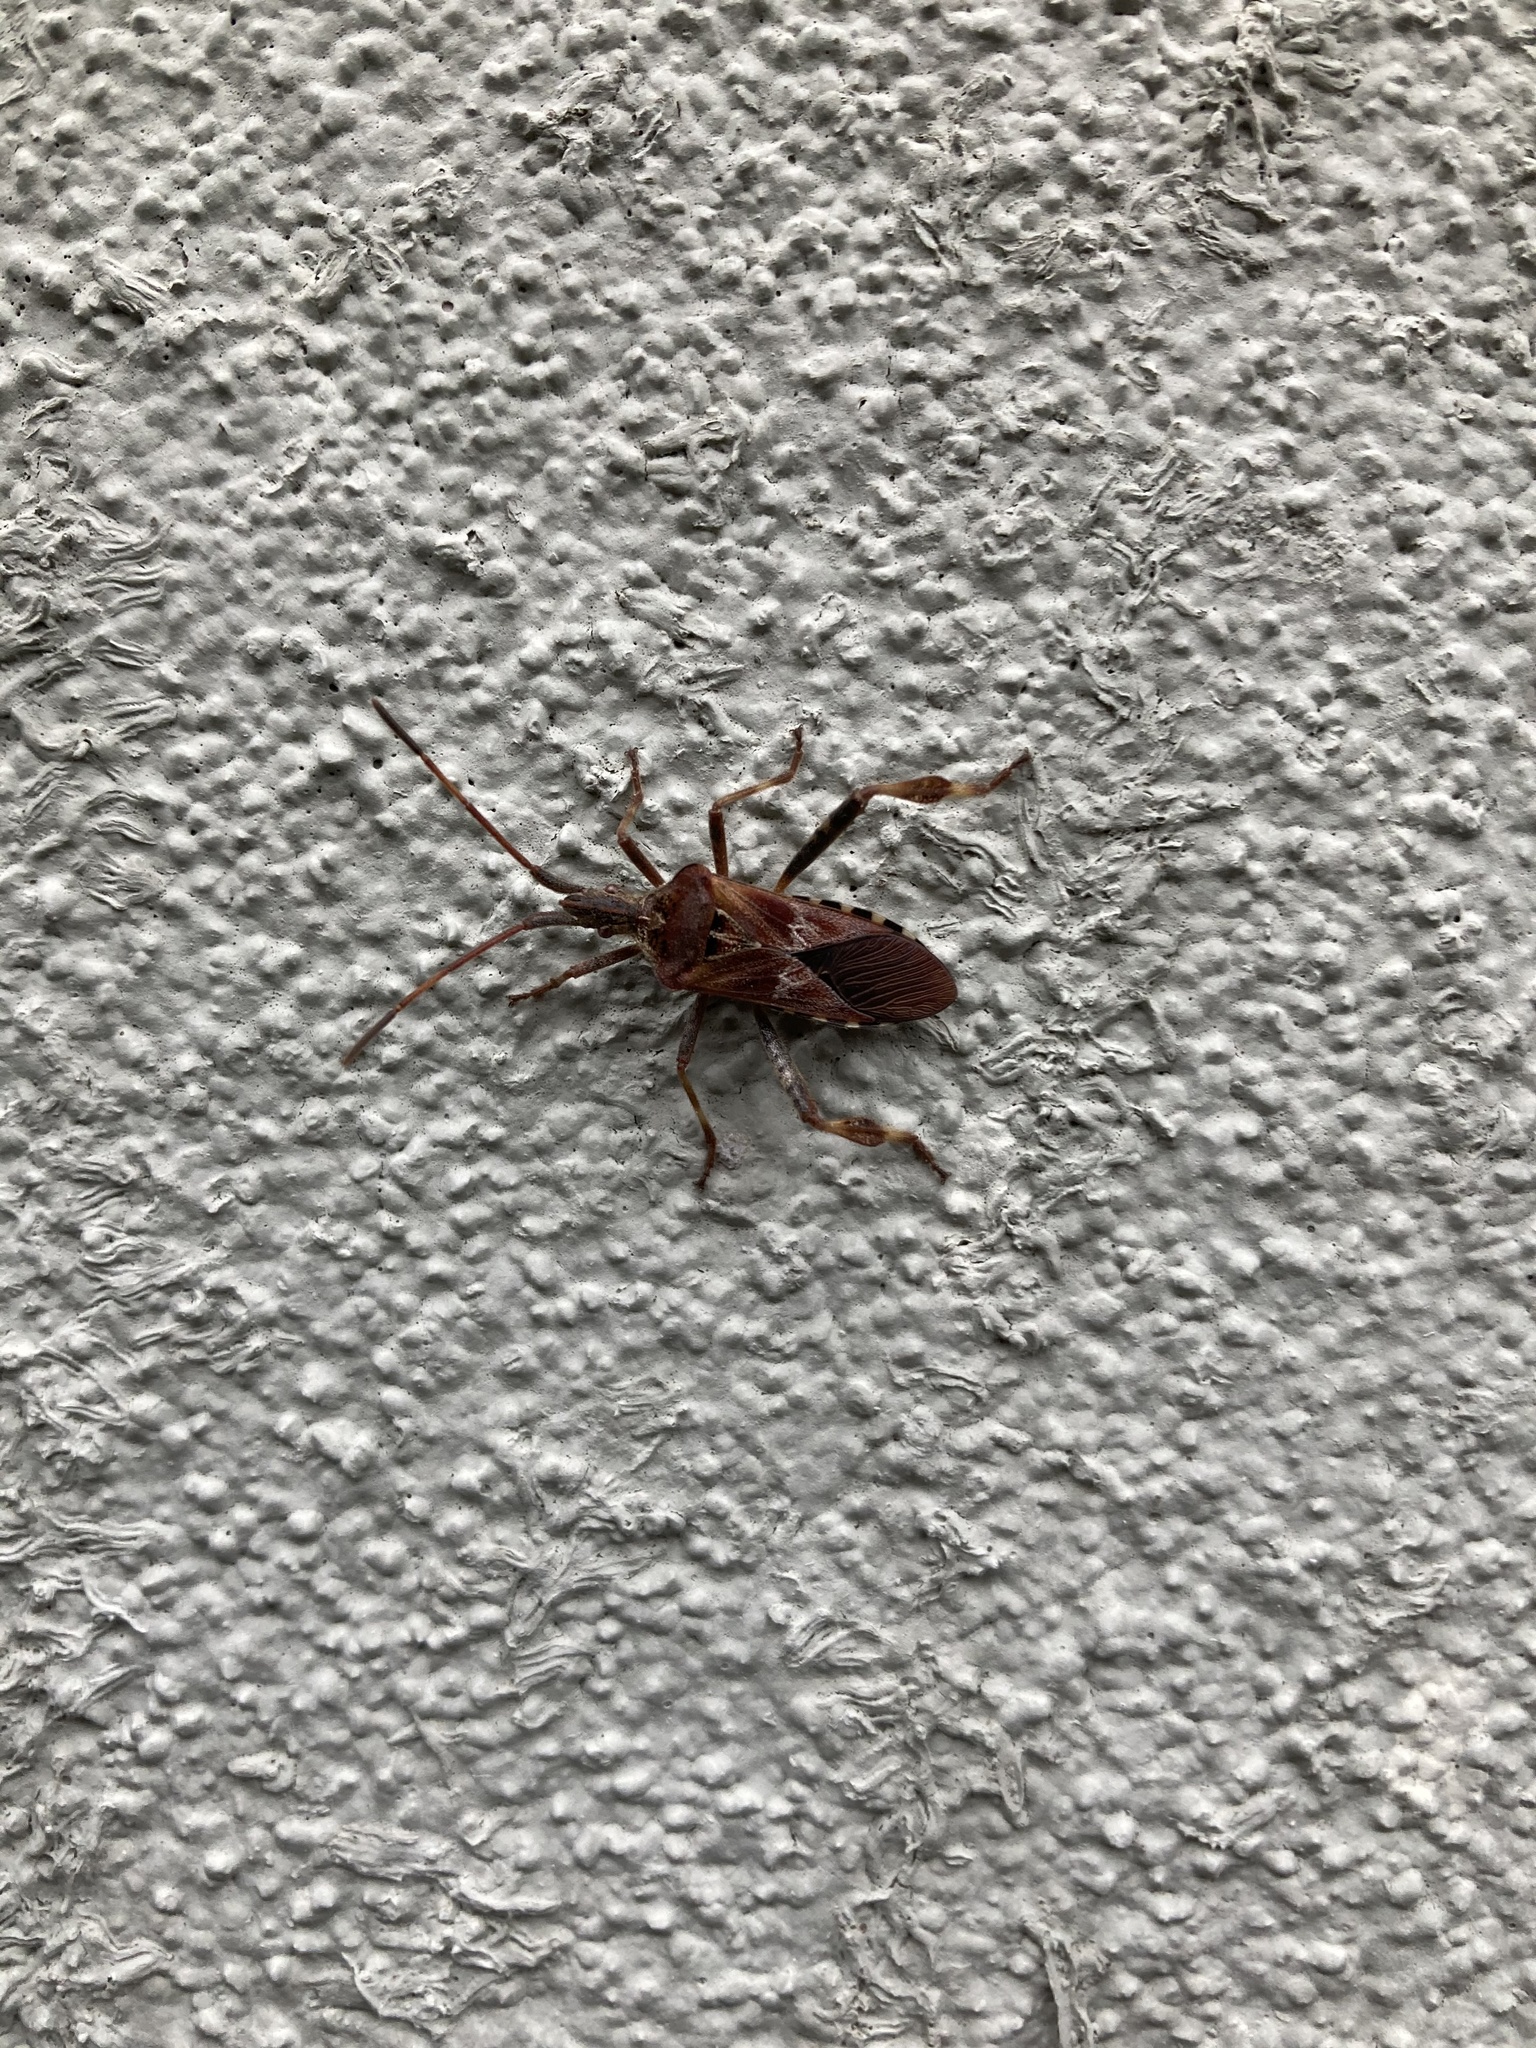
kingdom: Animalia
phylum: Arthropoda
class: Insecta
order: Hemiptera
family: Coreidae
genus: Leptoglossus
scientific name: Leptoglossus occidentalis
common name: Western conifer-seed bug
